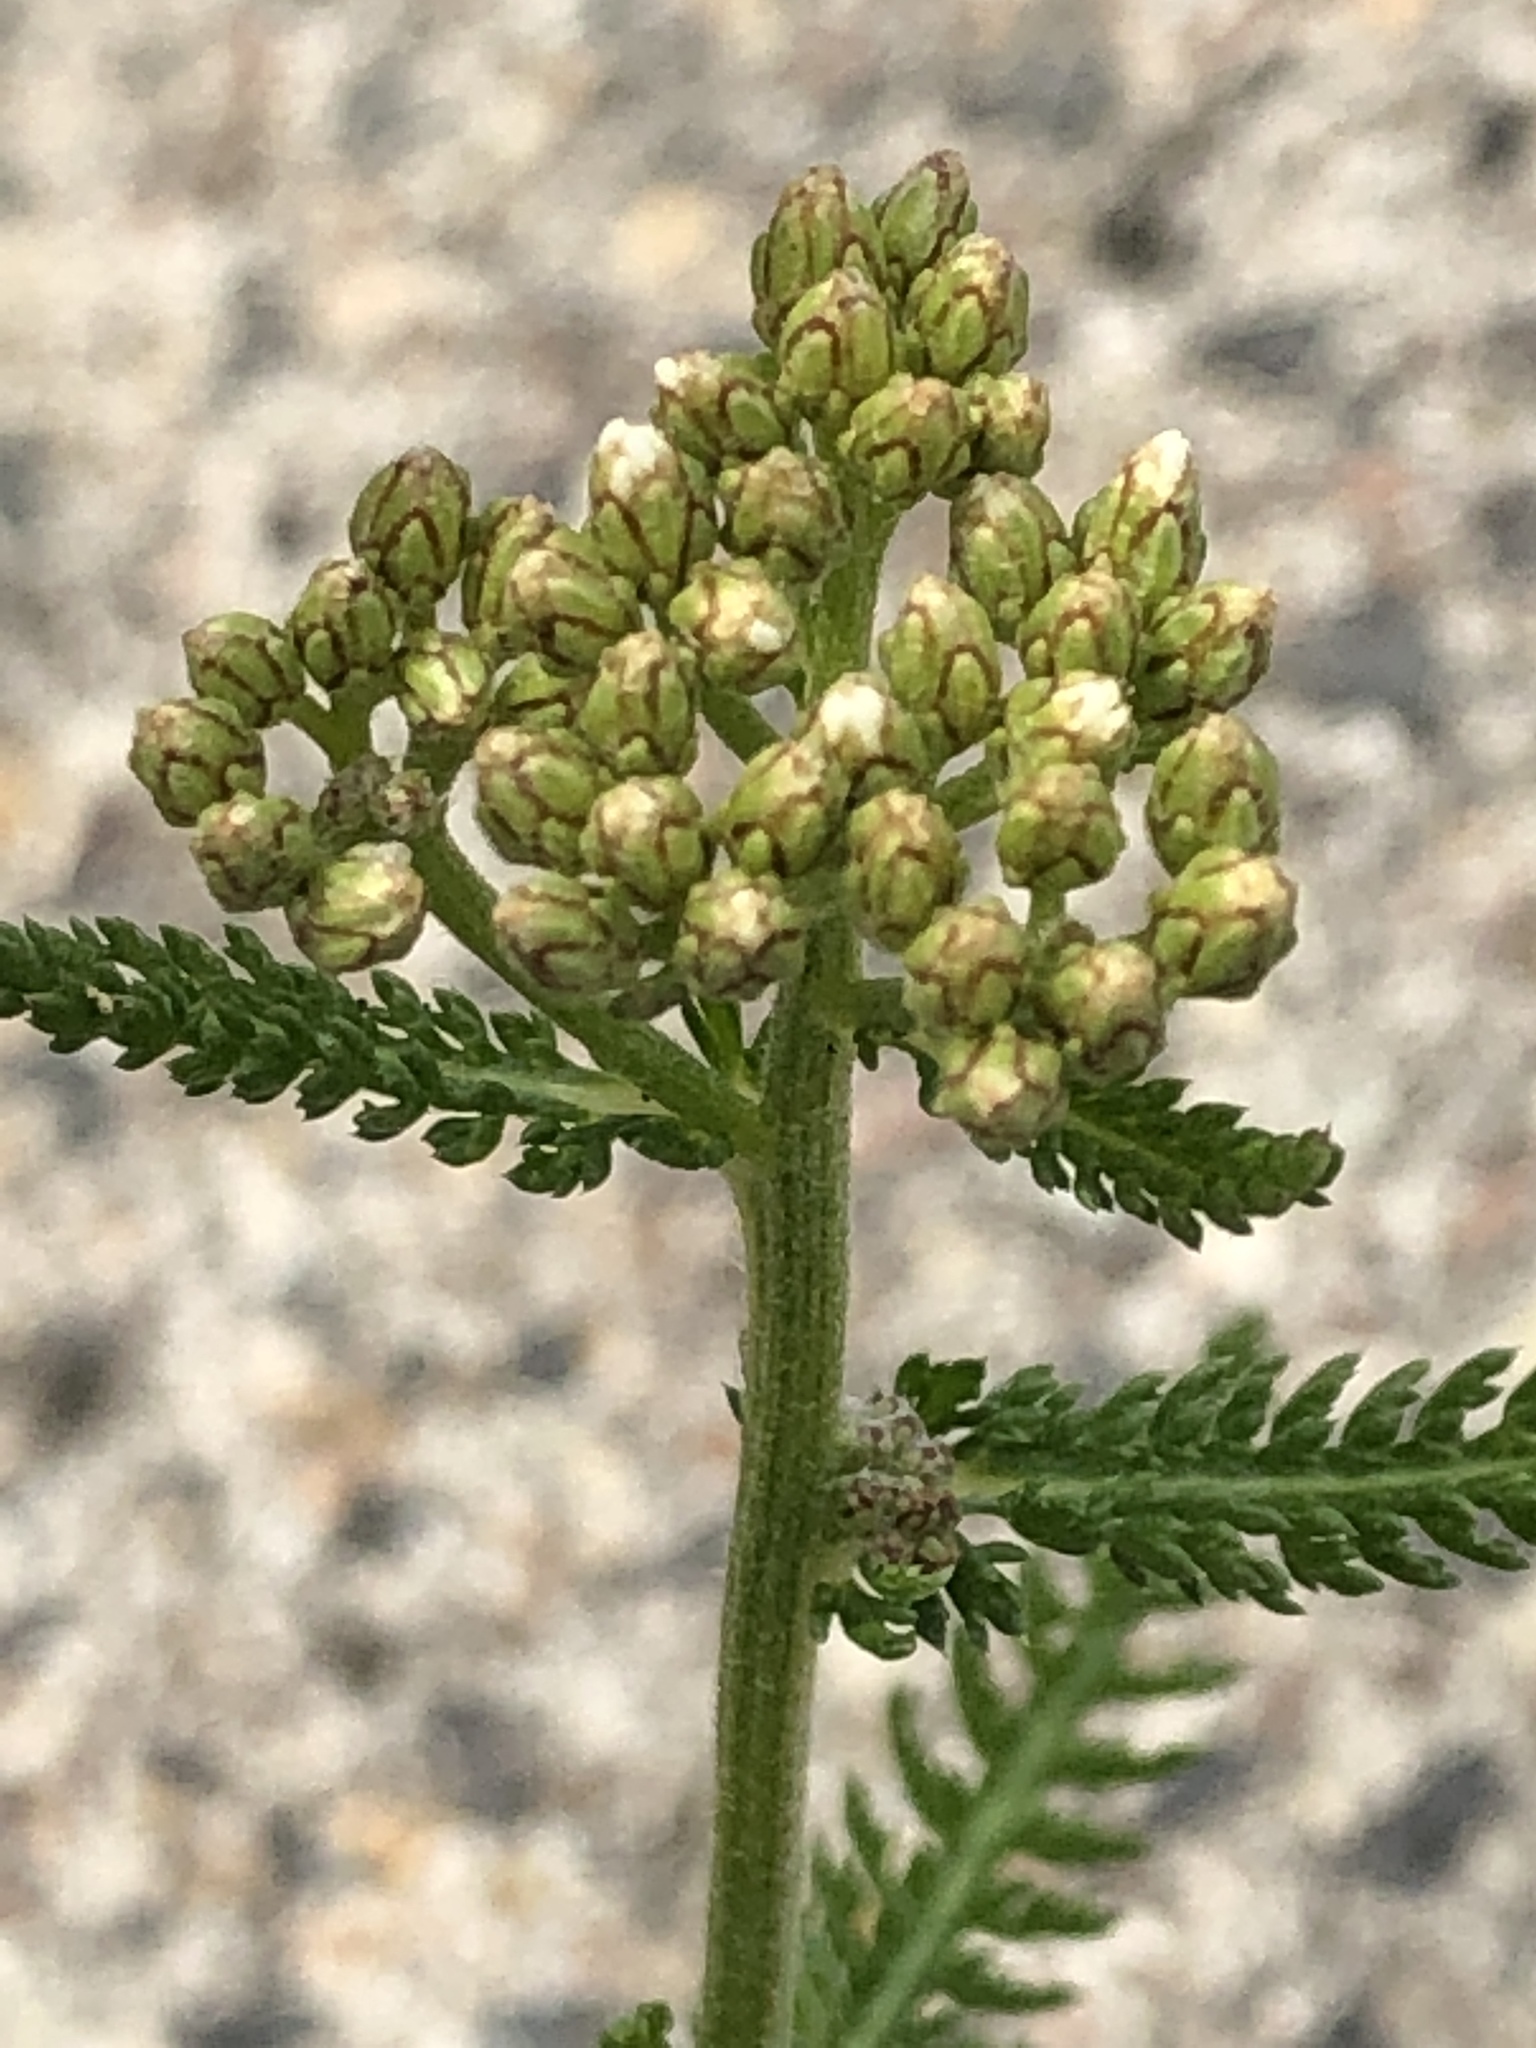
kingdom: Plantae
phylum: Tracheophyta
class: Magnoliopsida
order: Asterales
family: Asteraceae
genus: Achillea
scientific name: Achillea millefolium
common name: Yarrow
